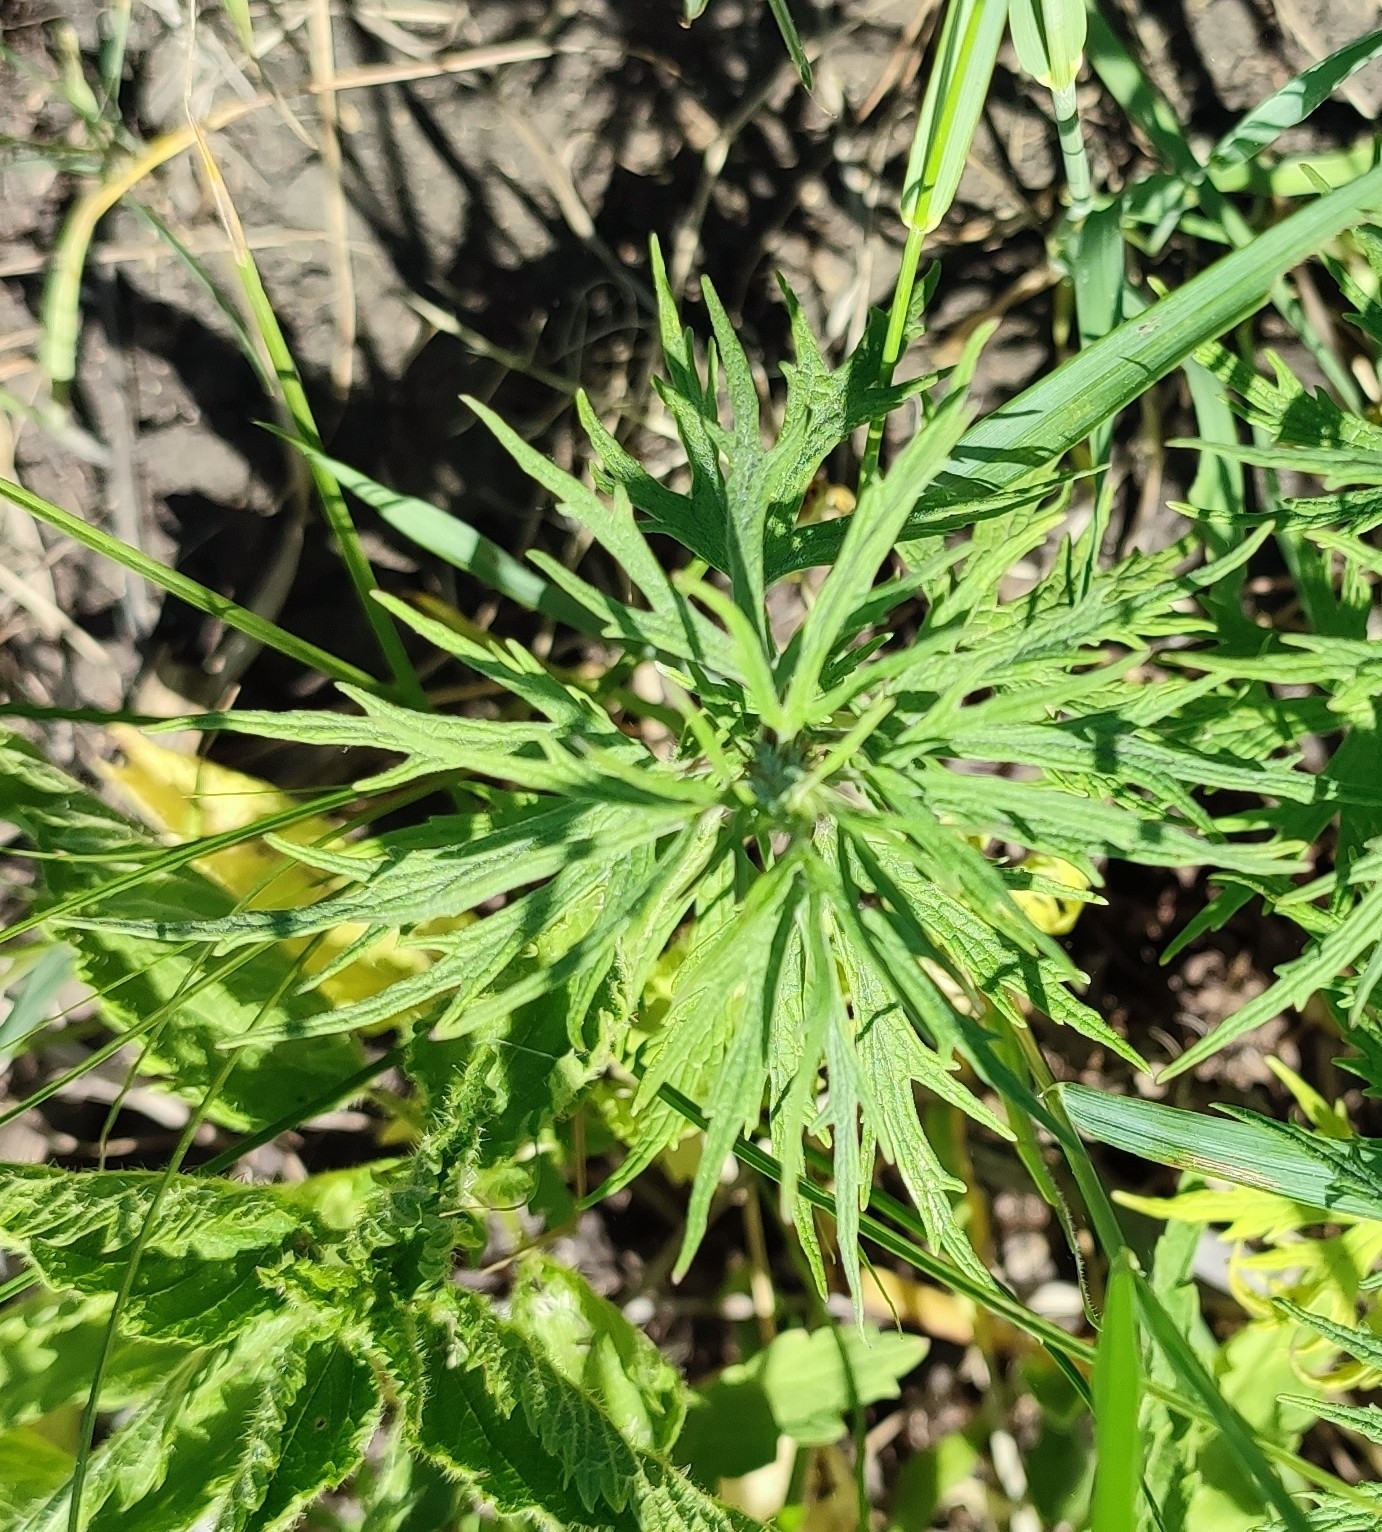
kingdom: Plantae
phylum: Tracheophyta
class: Magnoliopsida
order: Lamiales
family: Lamiaceae
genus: Leonurus
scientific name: Leonurus glaucescens
